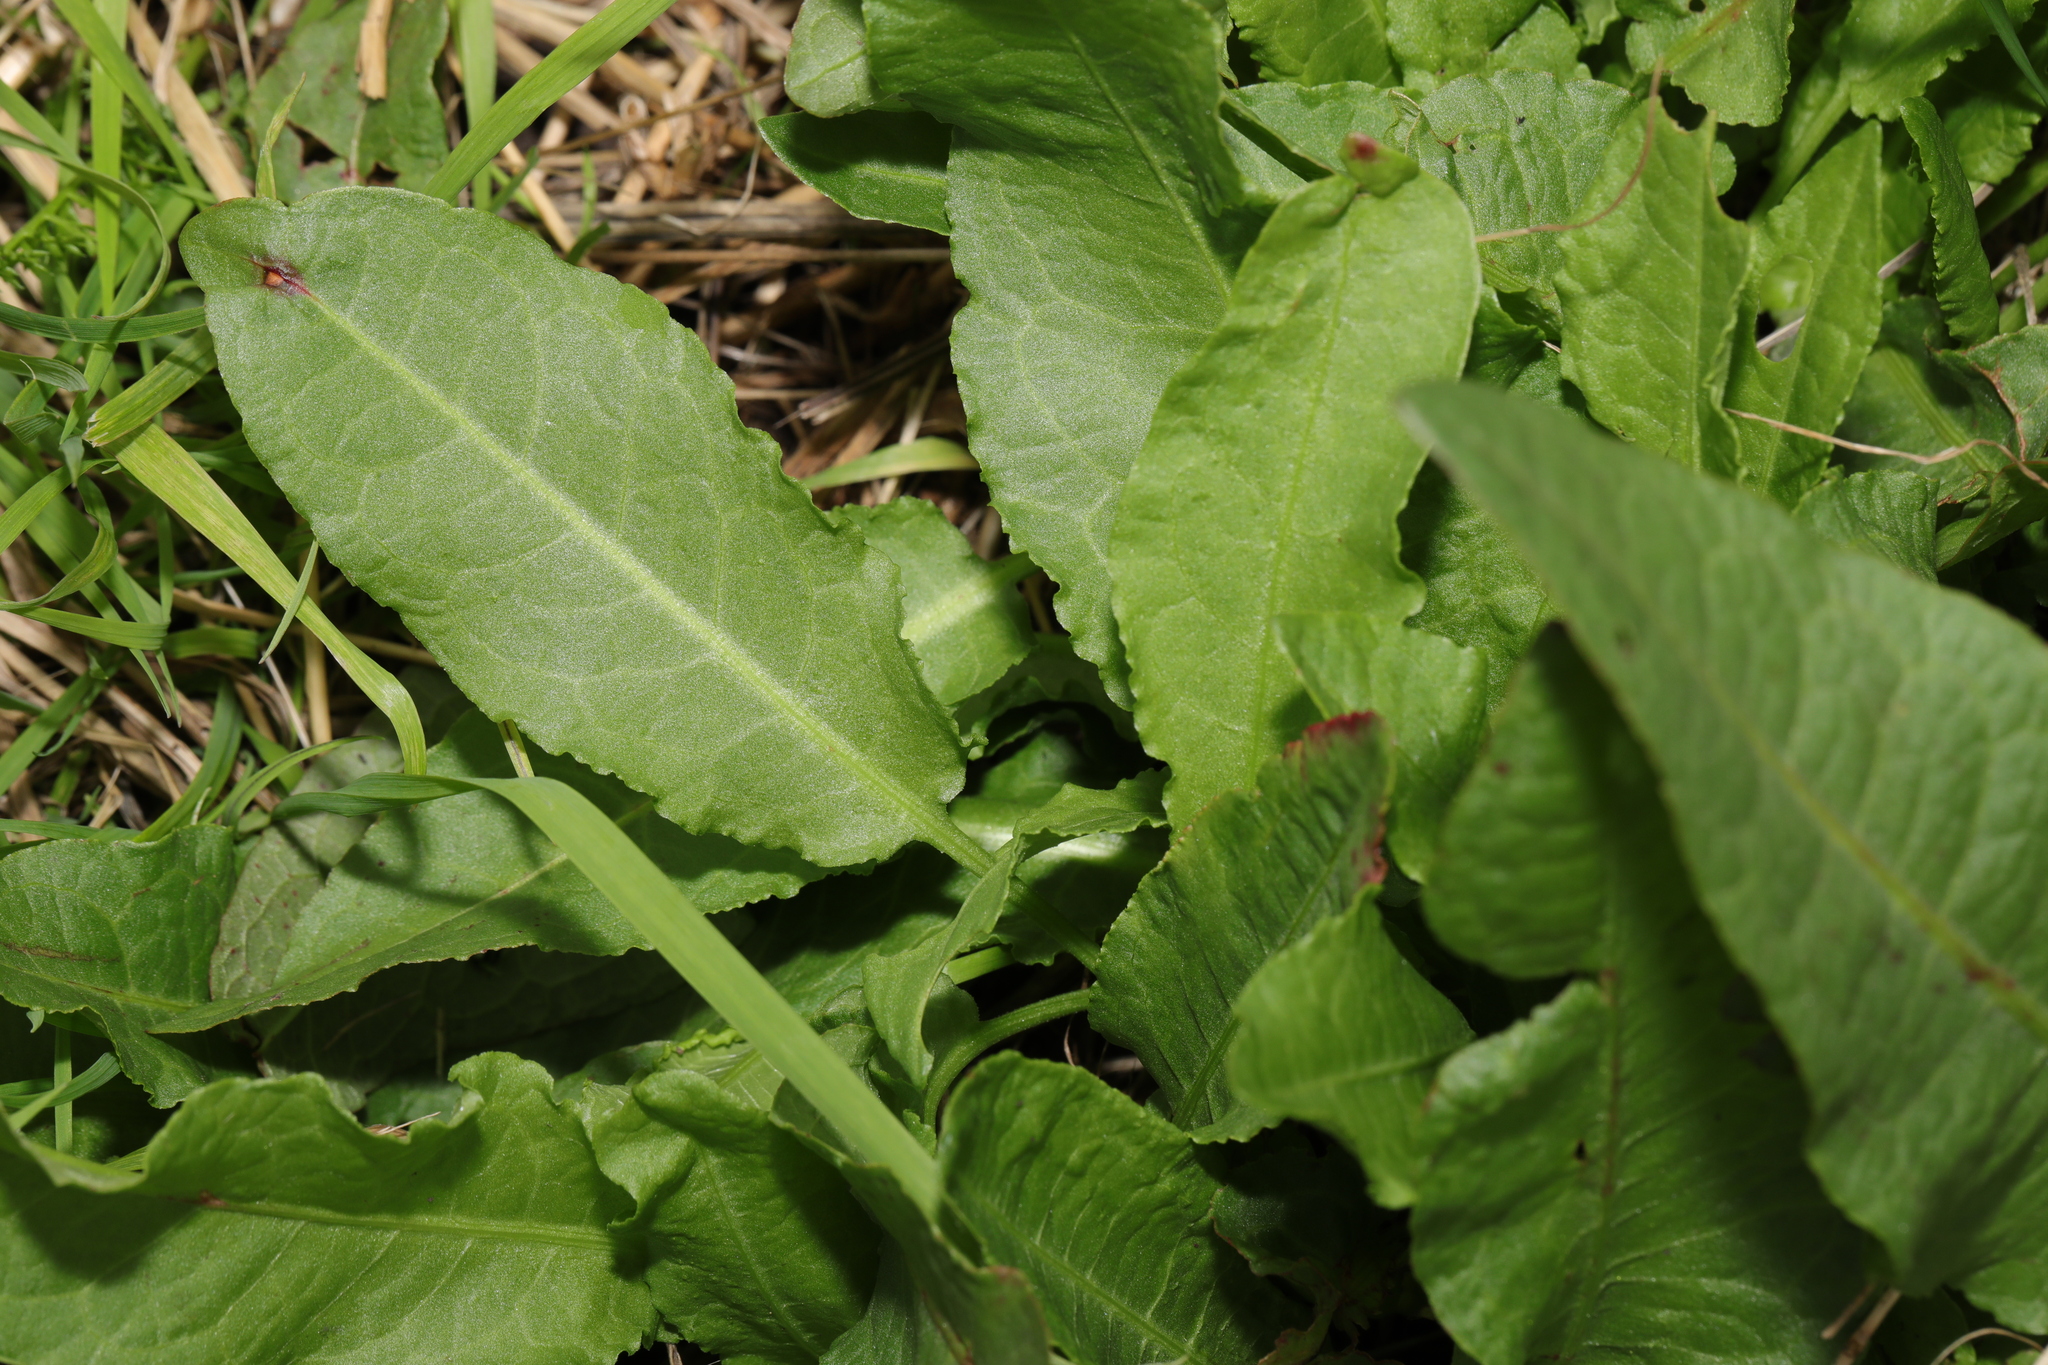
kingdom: Plantae
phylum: Tracheophyta
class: Magnoliopsida
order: Caryophyllales
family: Polygonaceae
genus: Rumex
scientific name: Rumex crispus
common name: Curled dock
